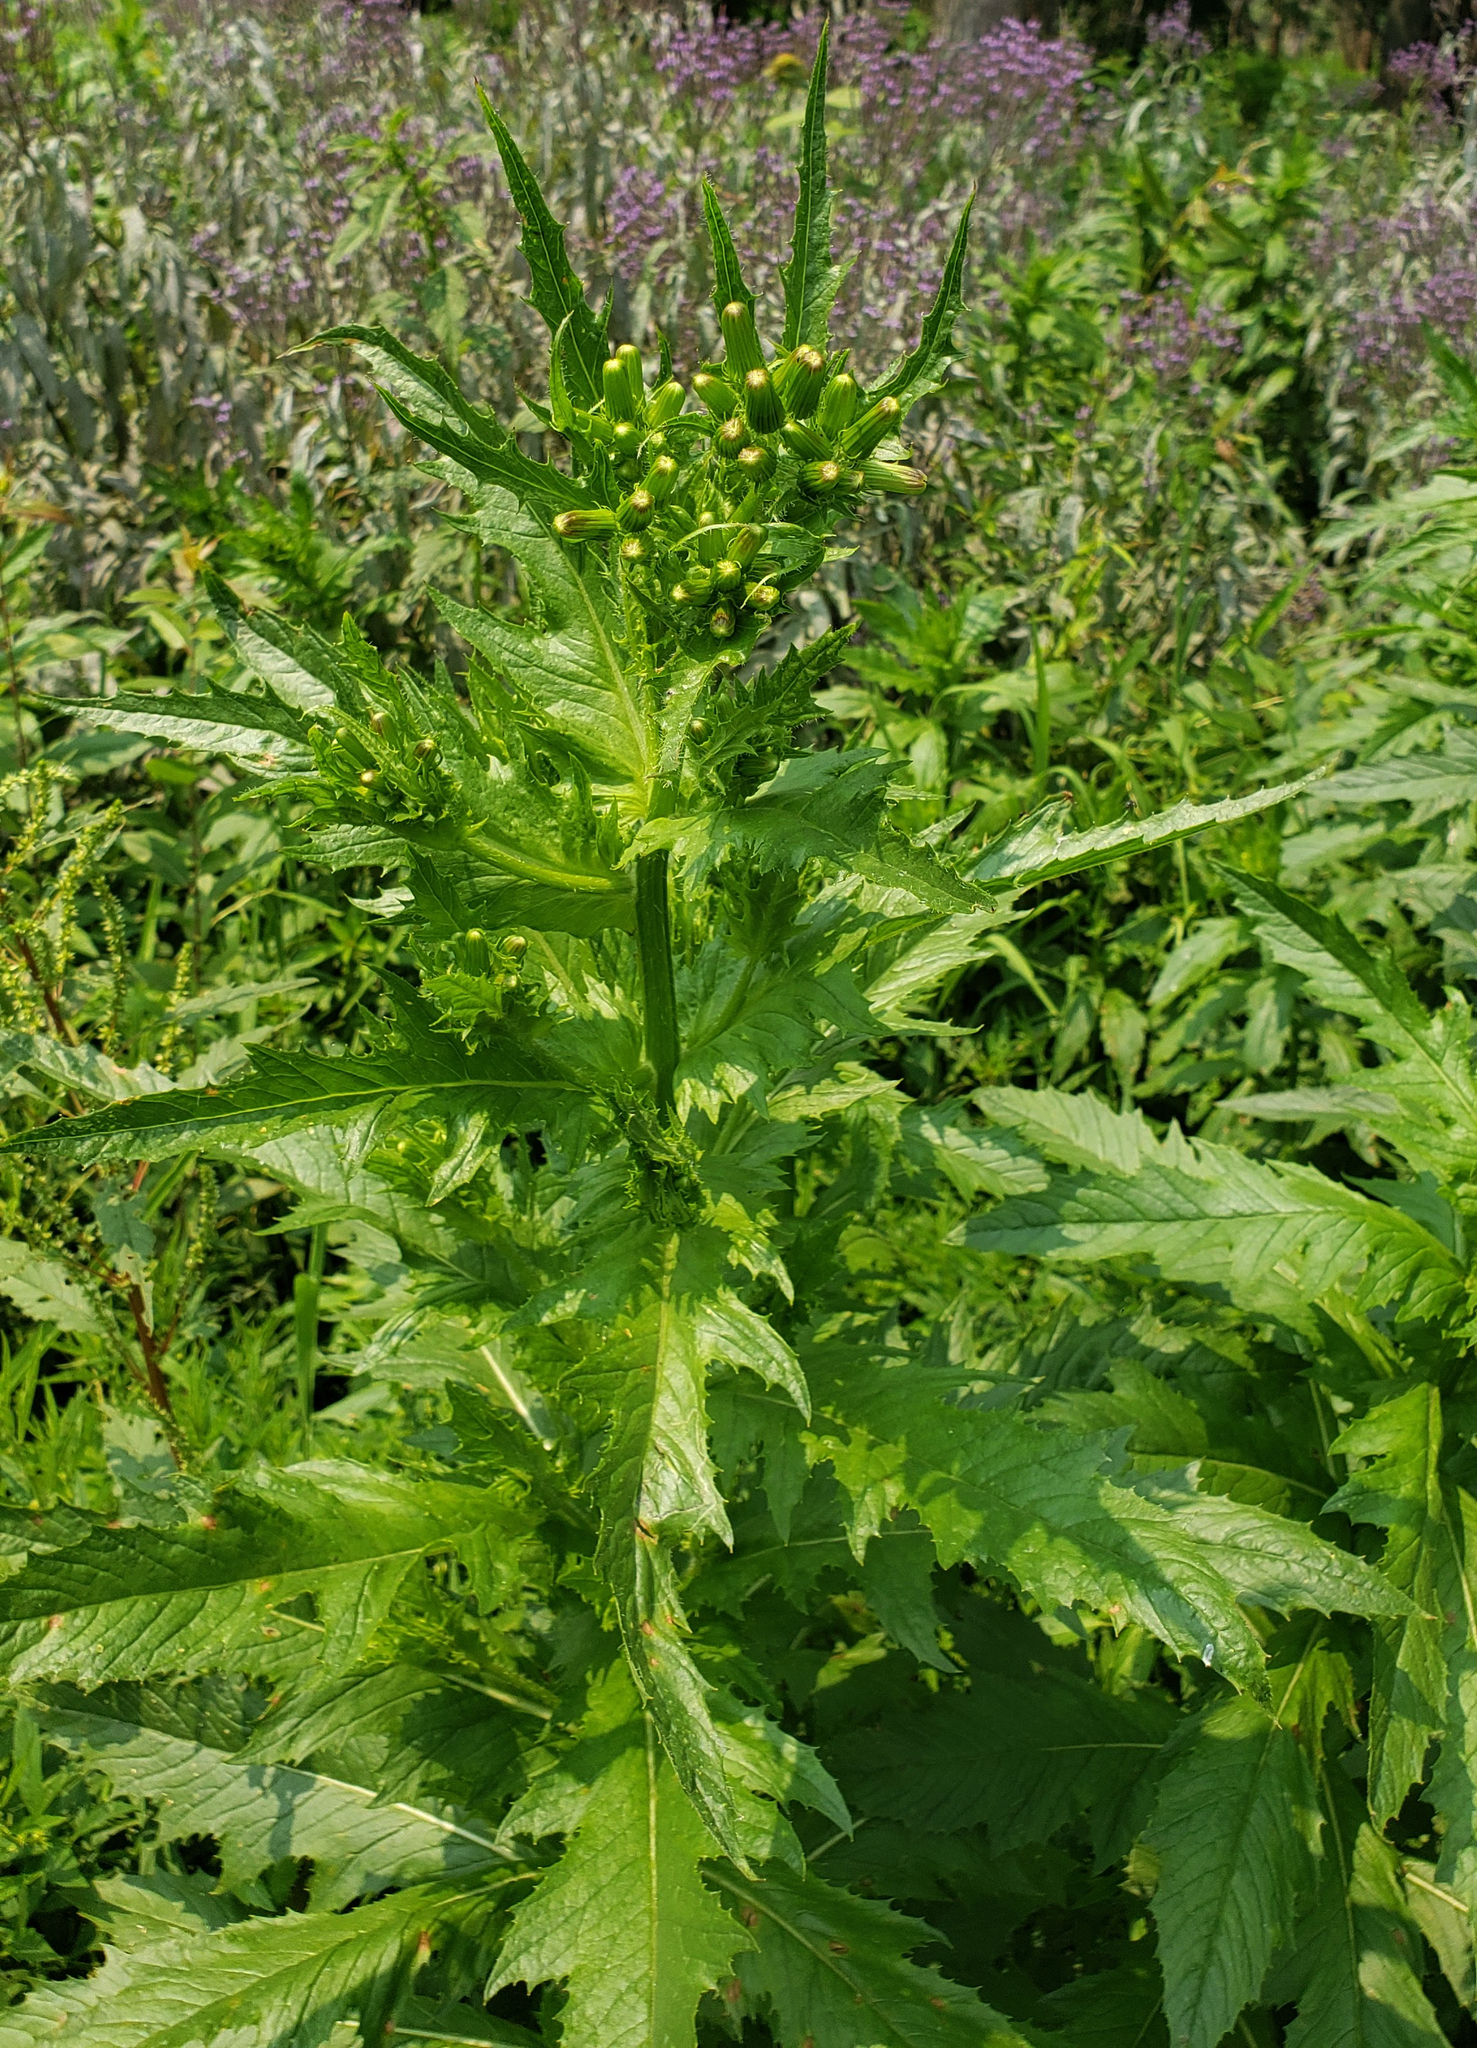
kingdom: Plantae
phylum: Tracheophyta
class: Magnoliopsida
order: Asterales
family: Asteraceae
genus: Erechtites
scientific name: Erechtites hieraciifolius
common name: American burnweed
